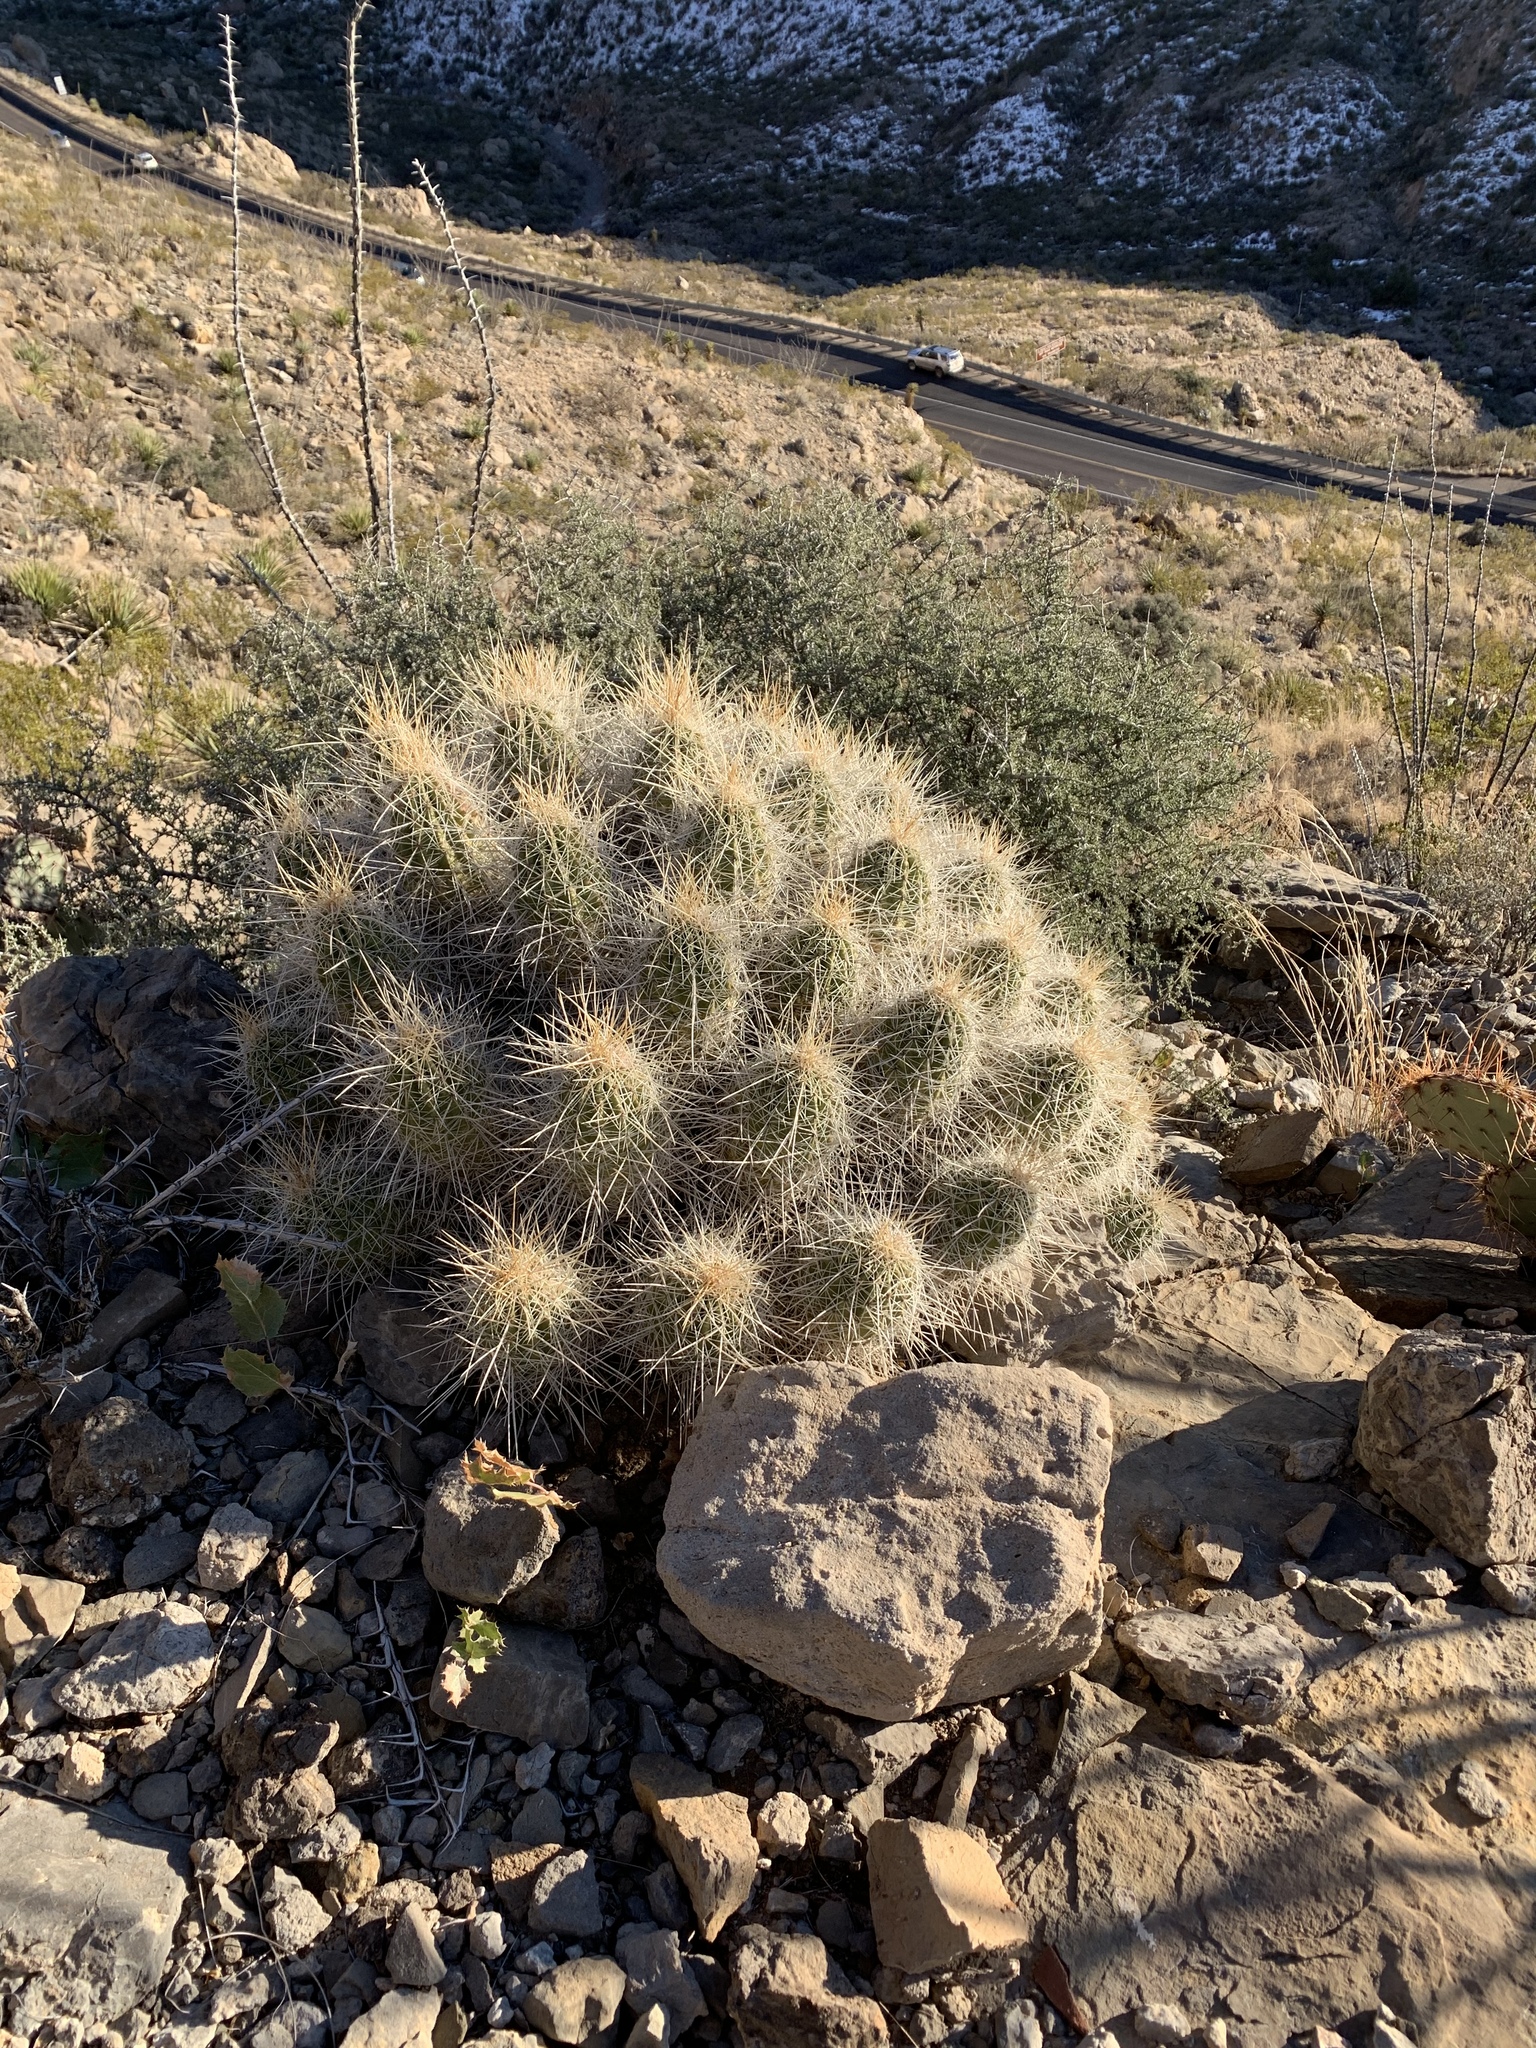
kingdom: Plantae
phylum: Tracheophyta
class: Magnoliopsida
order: Caryophyllales
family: Cactaceae
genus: Echinocereus
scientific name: Echinocereus stramineus
